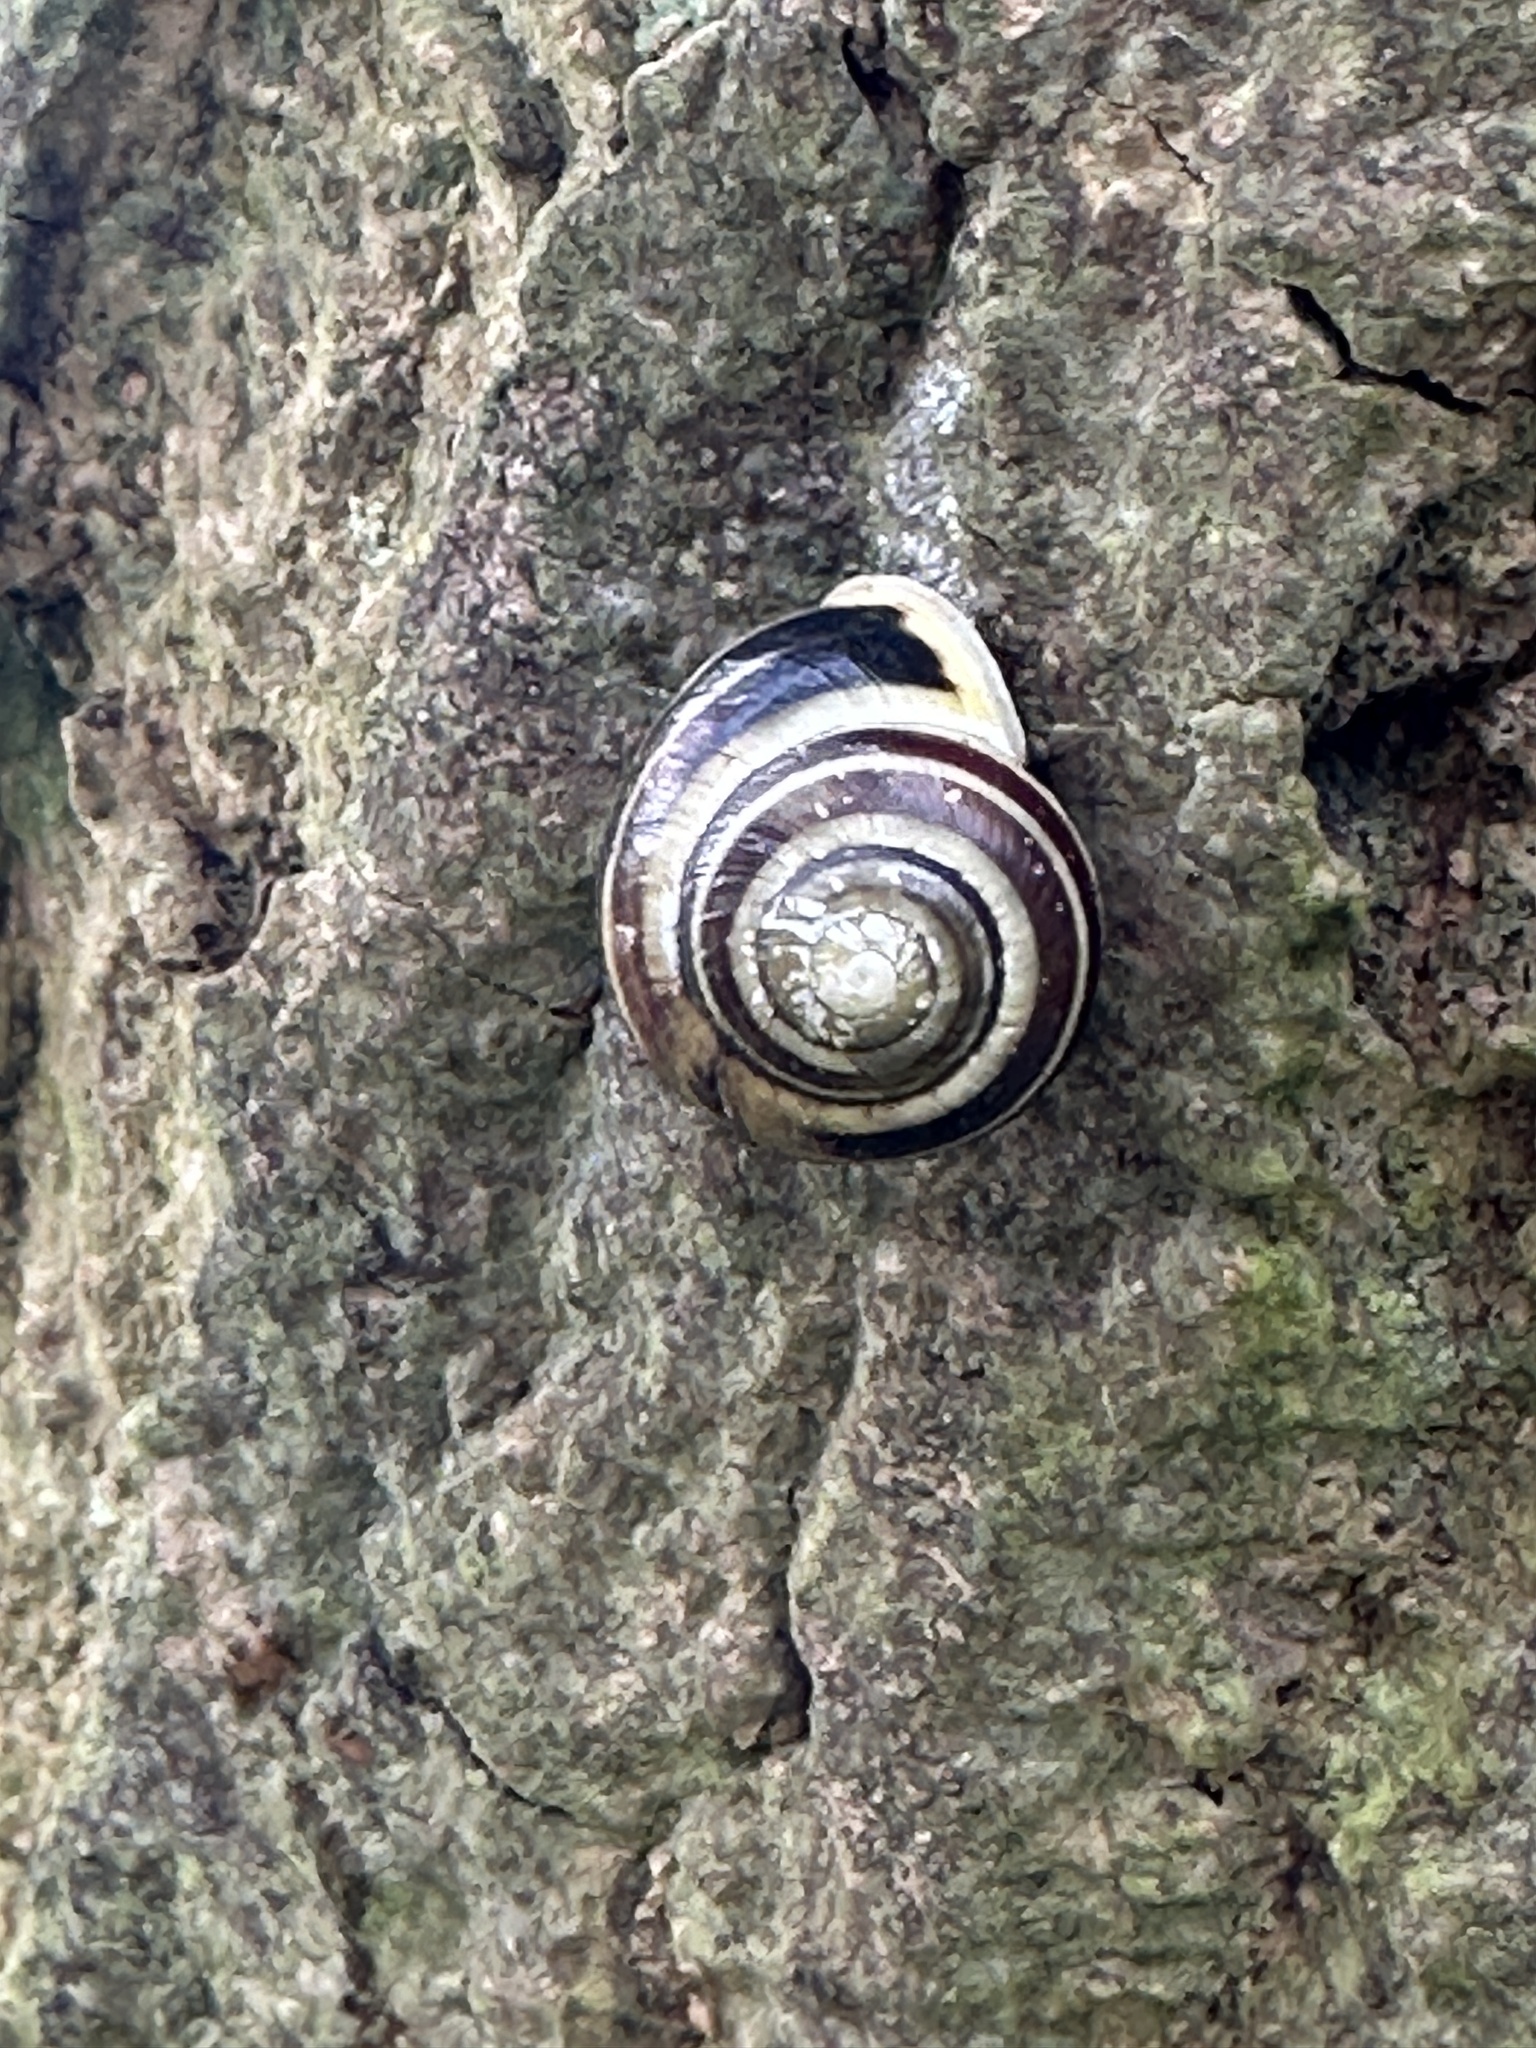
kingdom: Animalia
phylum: Mollusca
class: Gastropoda
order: Stylommatophora
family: Helicidae
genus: Cepaea
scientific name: Cepaea hortensis
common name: White-lip gardensnail
